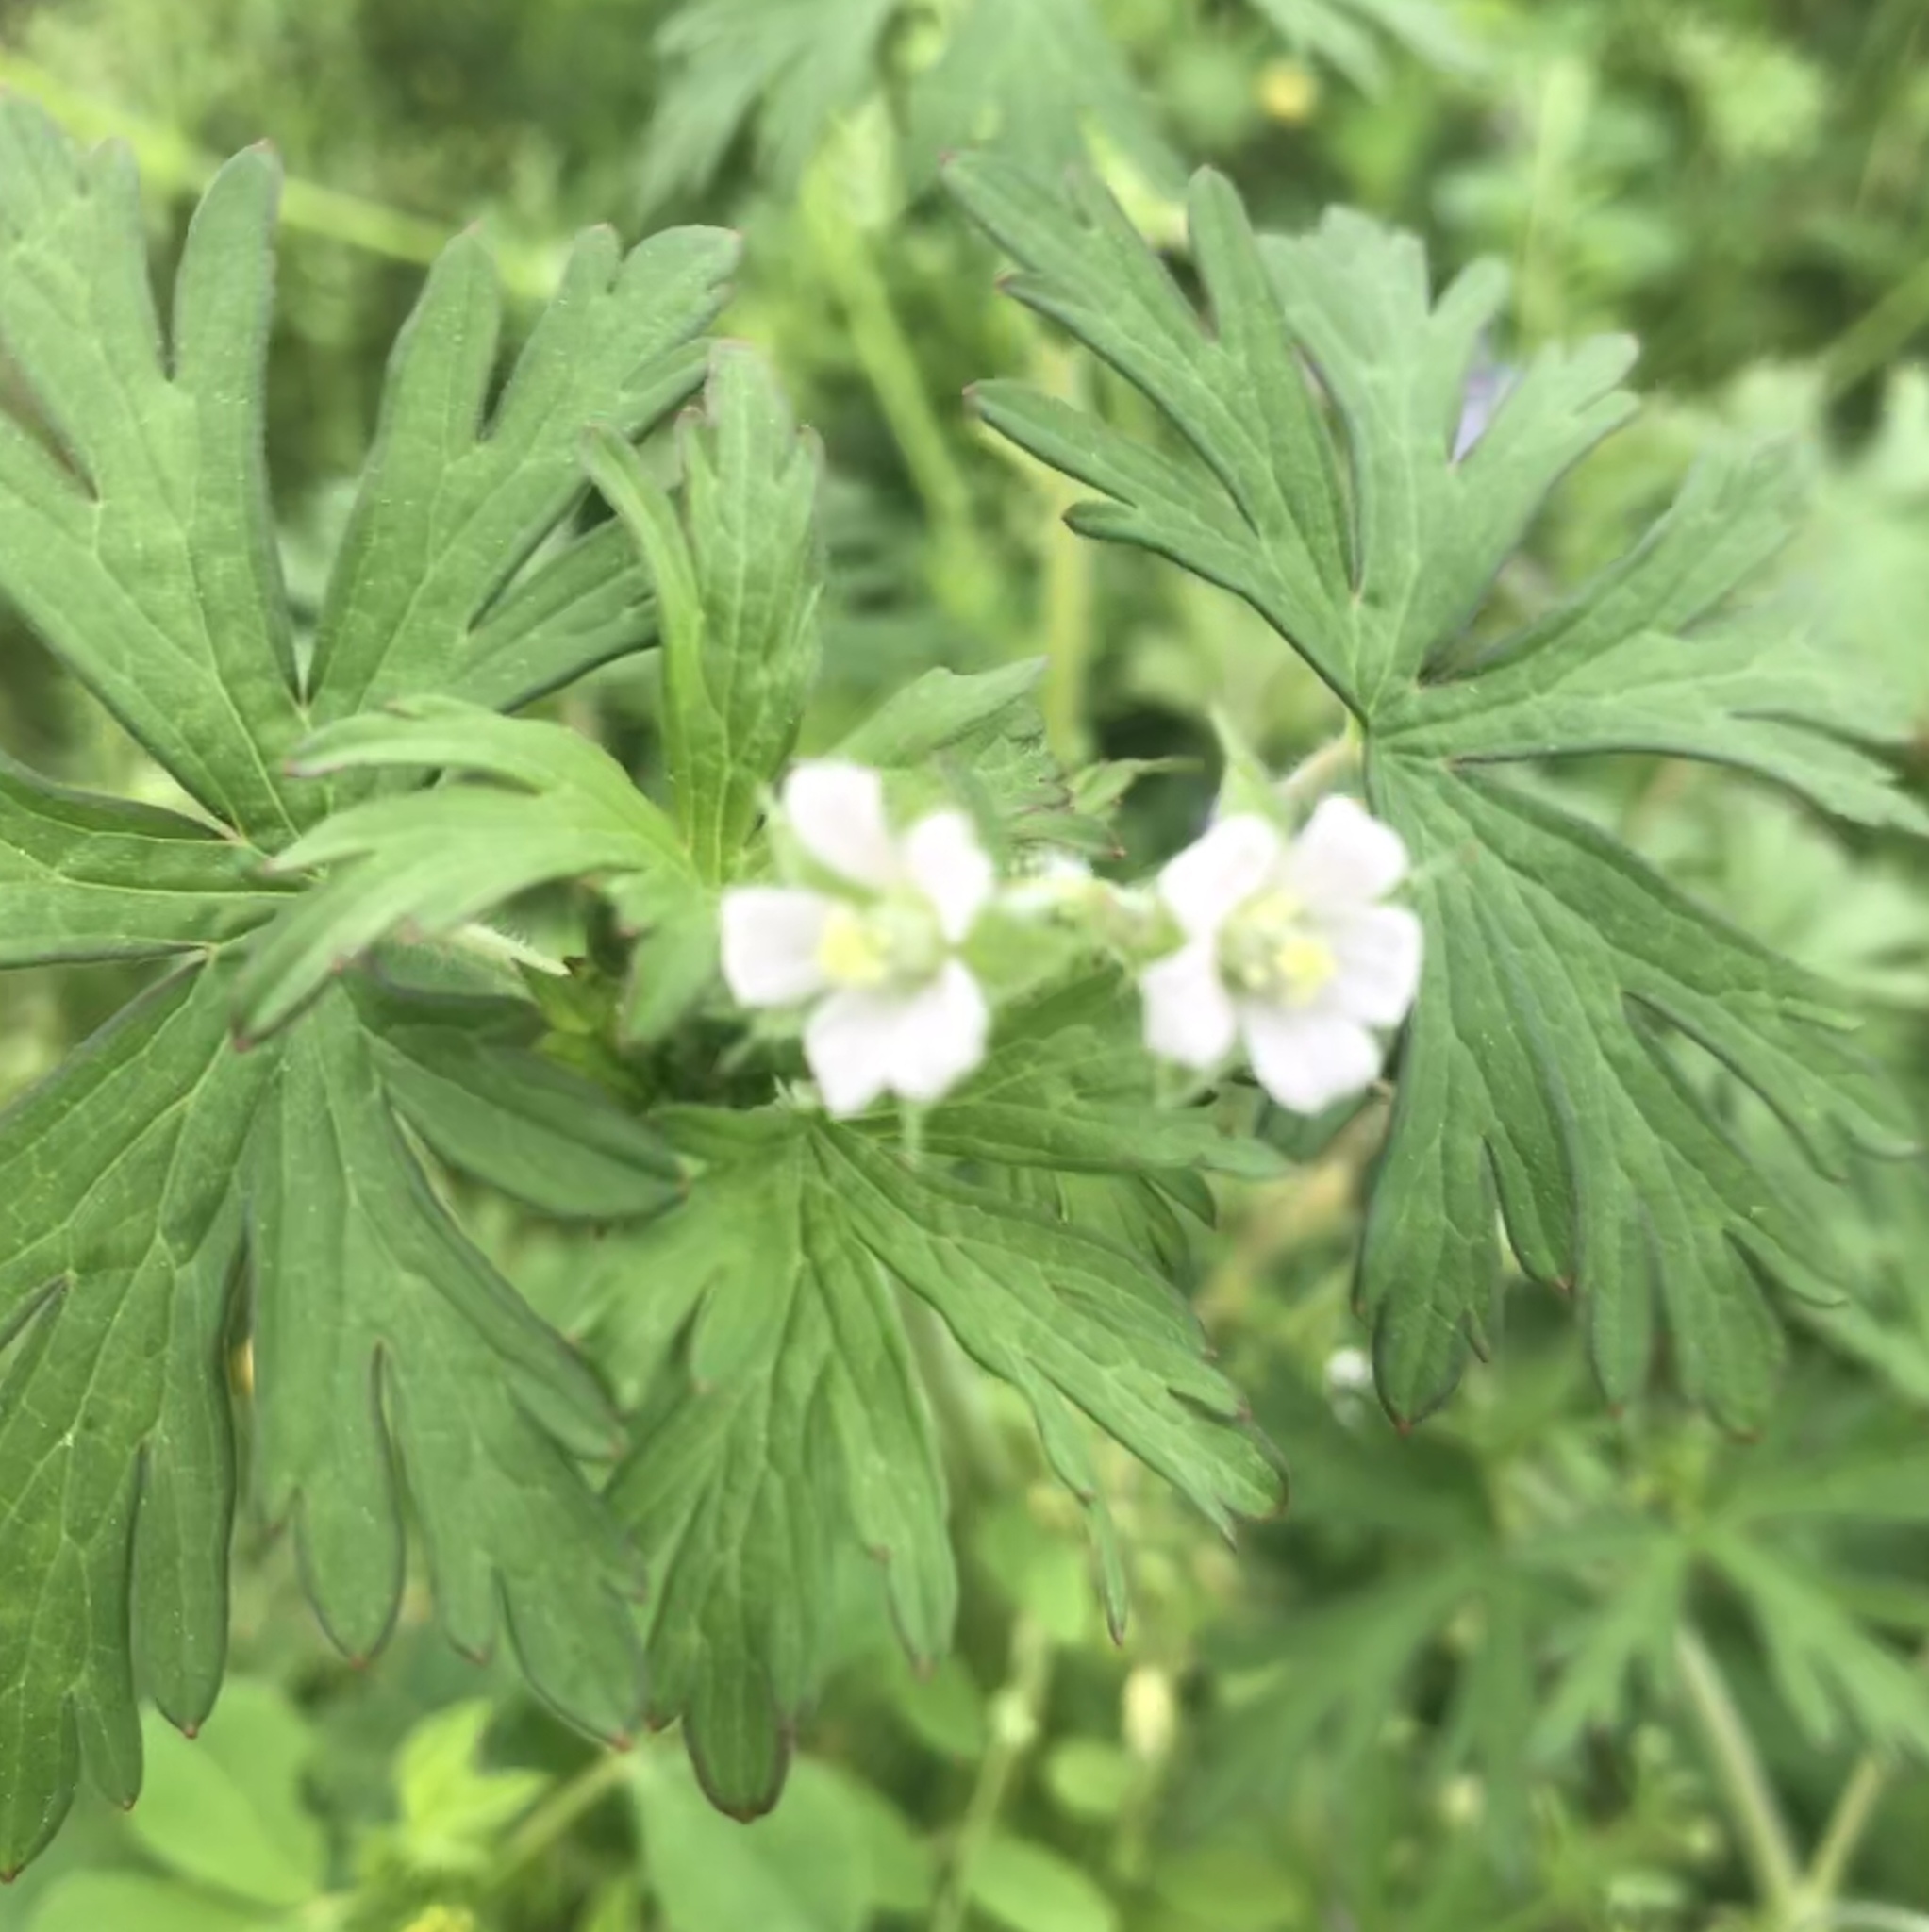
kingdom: Plantae
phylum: Tracheophyta
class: Magnoliopsida
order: Geraniales
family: Geraniaceae
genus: Geranium
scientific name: Geranium carolinianum
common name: Carolina crane's-bill
